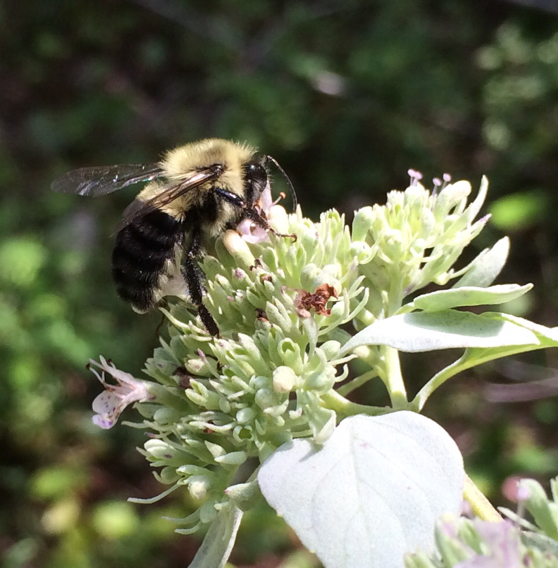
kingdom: Animalia
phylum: Arthropoda
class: Insecta
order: Hymenoptera
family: Apidae
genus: Bombus
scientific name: Bombus impatiens
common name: Common eastern bumble bee
